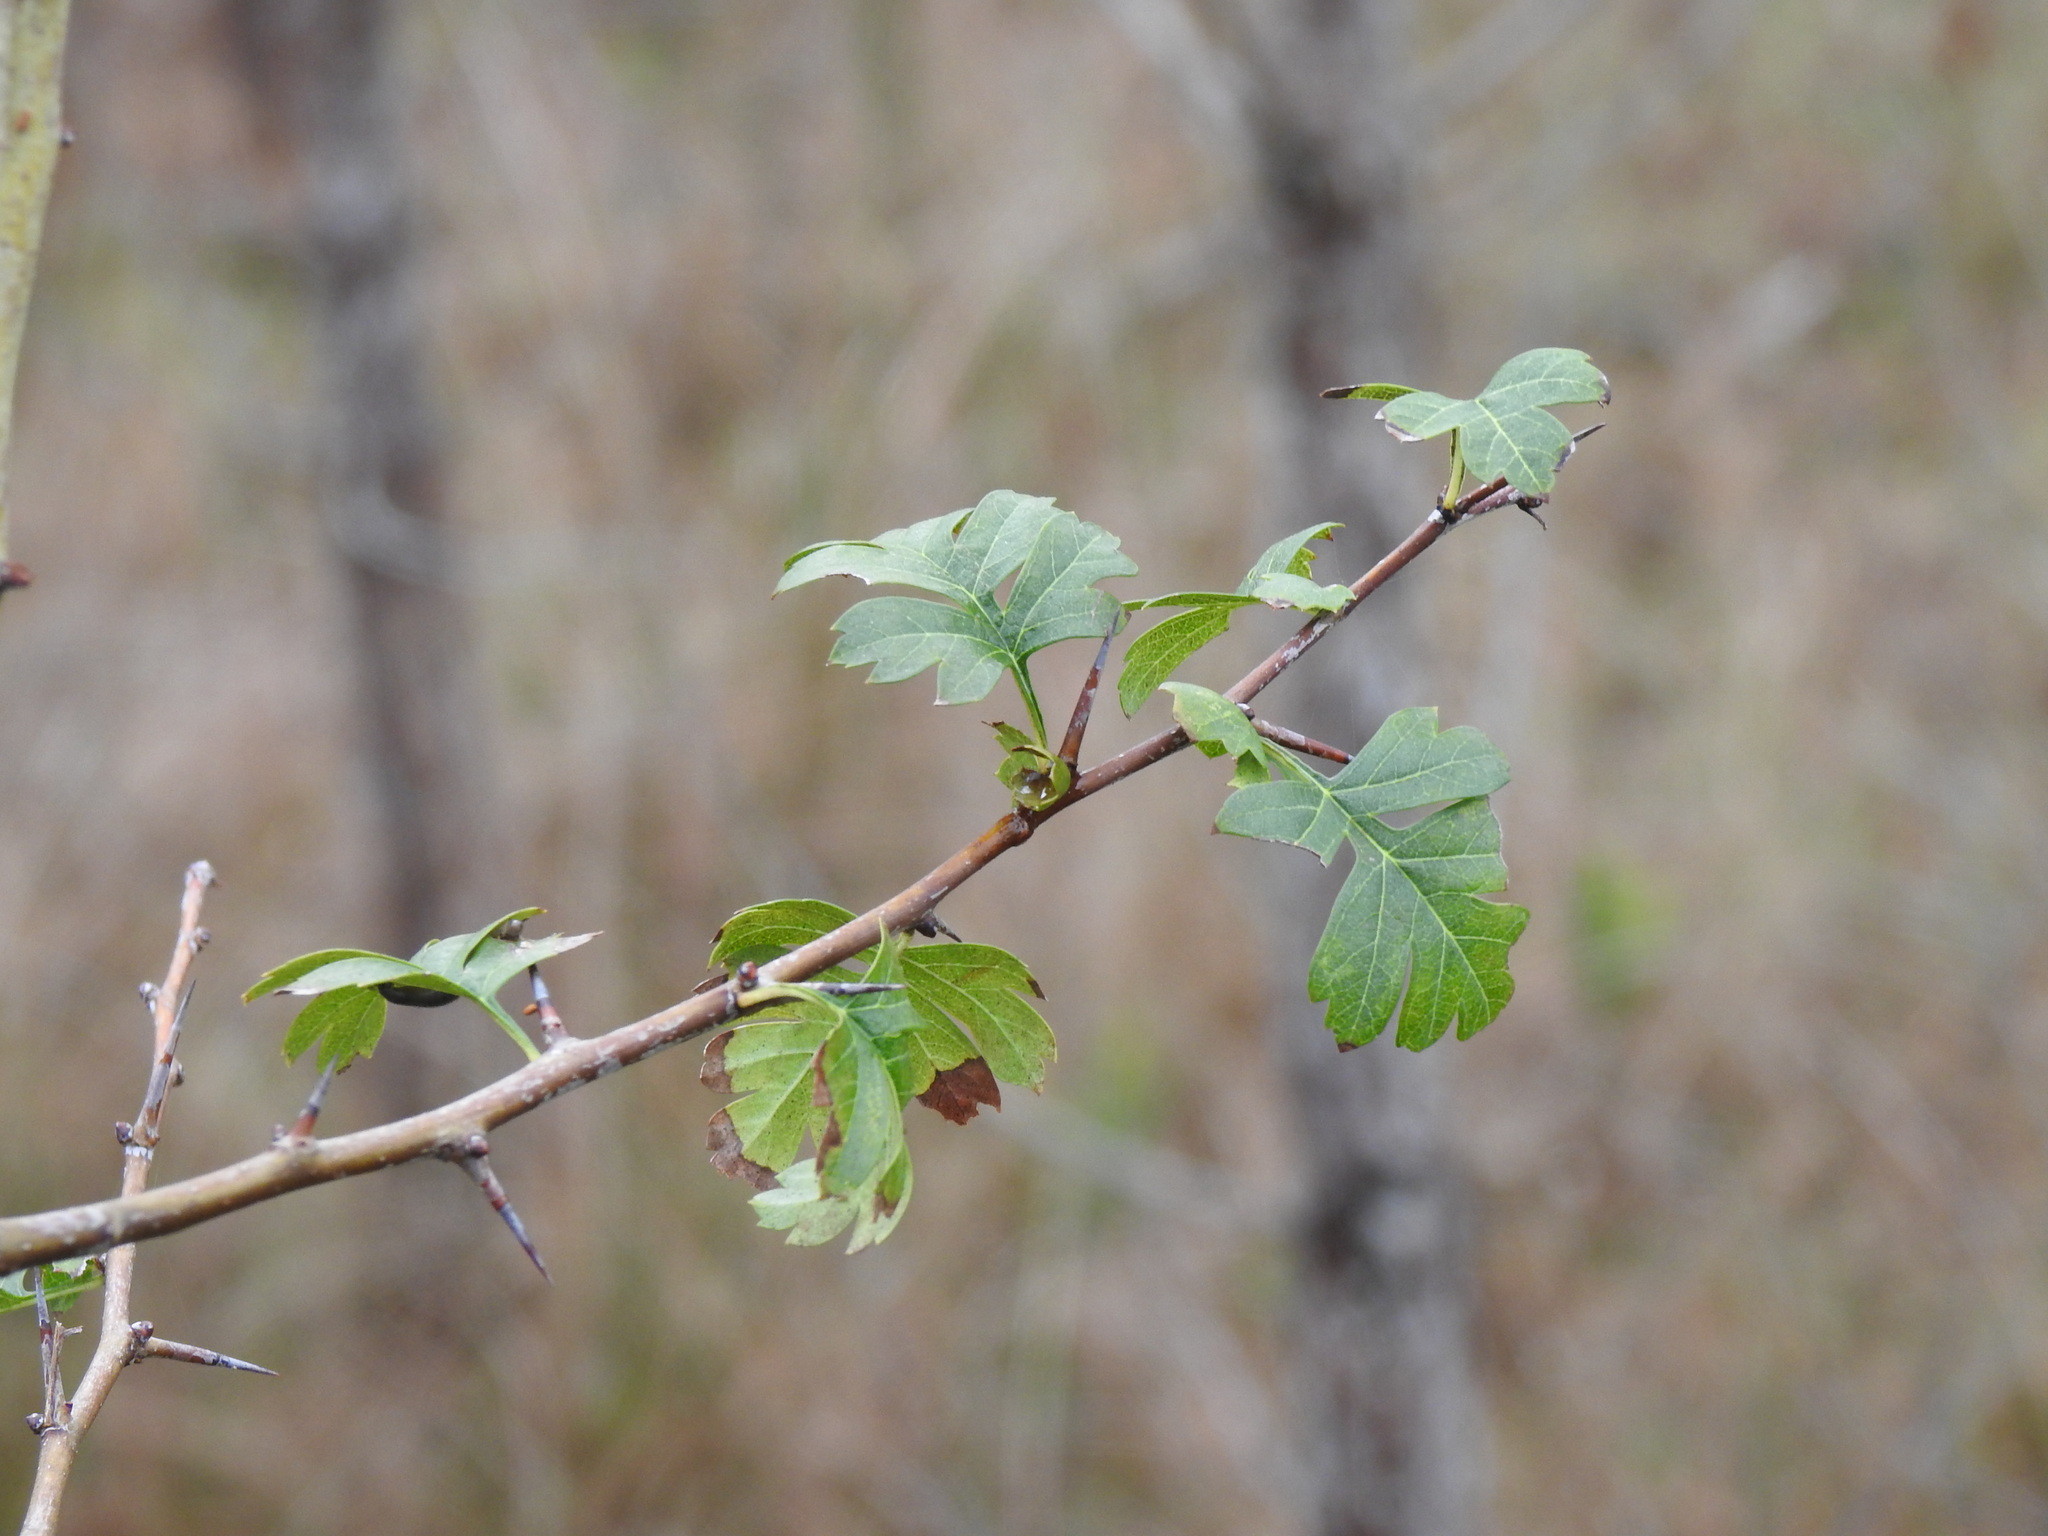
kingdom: Plantae
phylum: Tracheophyta
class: Magnoliopsida
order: Rosales
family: Rosaceae
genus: Crataegus
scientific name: Crataegus monogyna
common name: Hawthorn
